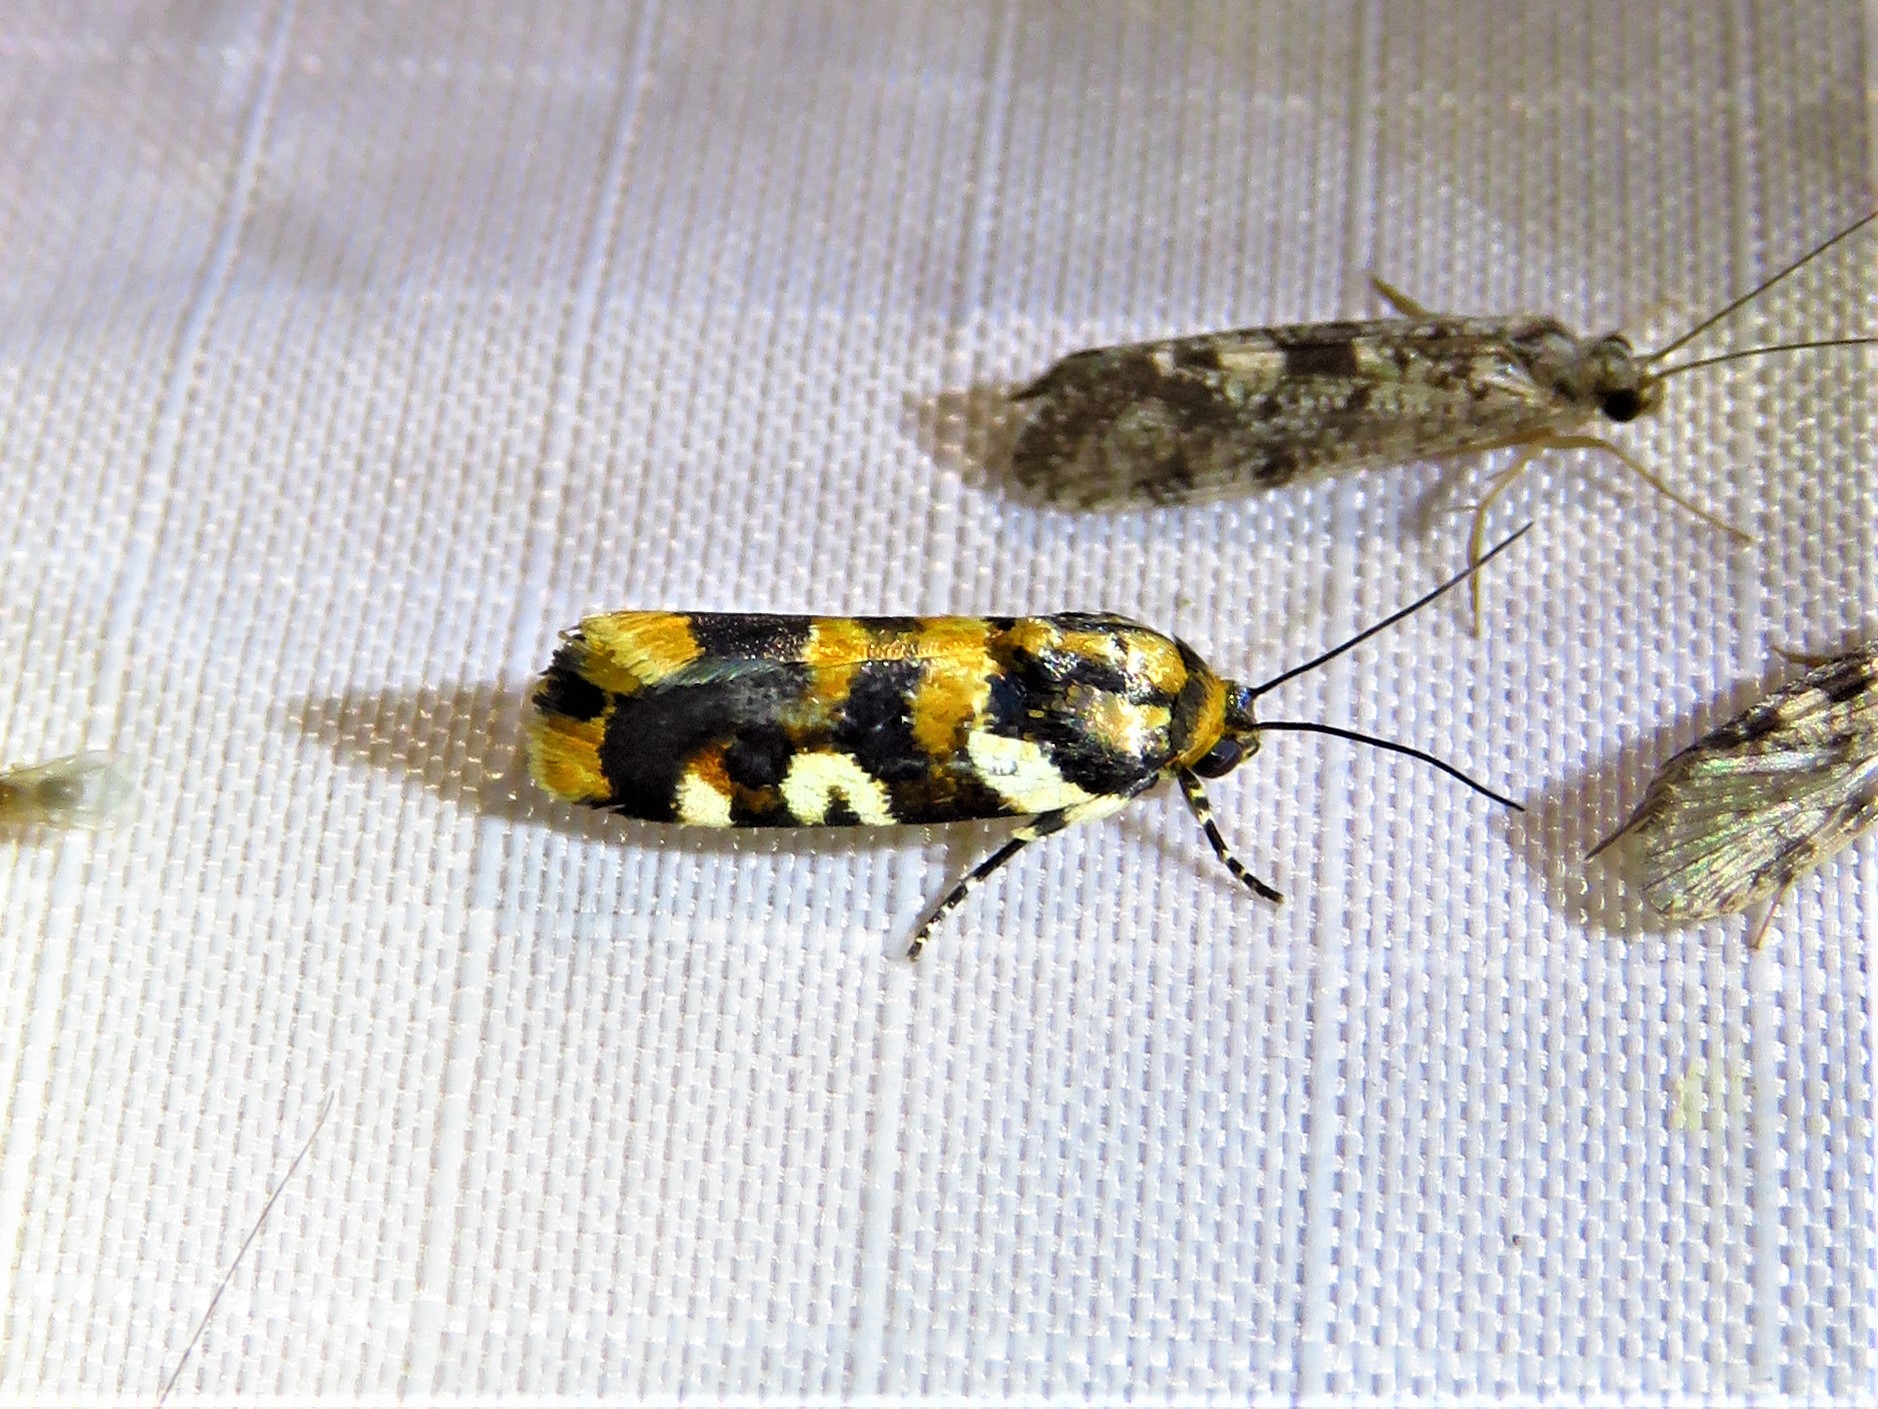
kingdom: Animalia
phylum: Arthropoda
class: Insecta
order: Lepidoptera
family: Noctuidae
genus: Acontia
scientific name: Acontia dama
